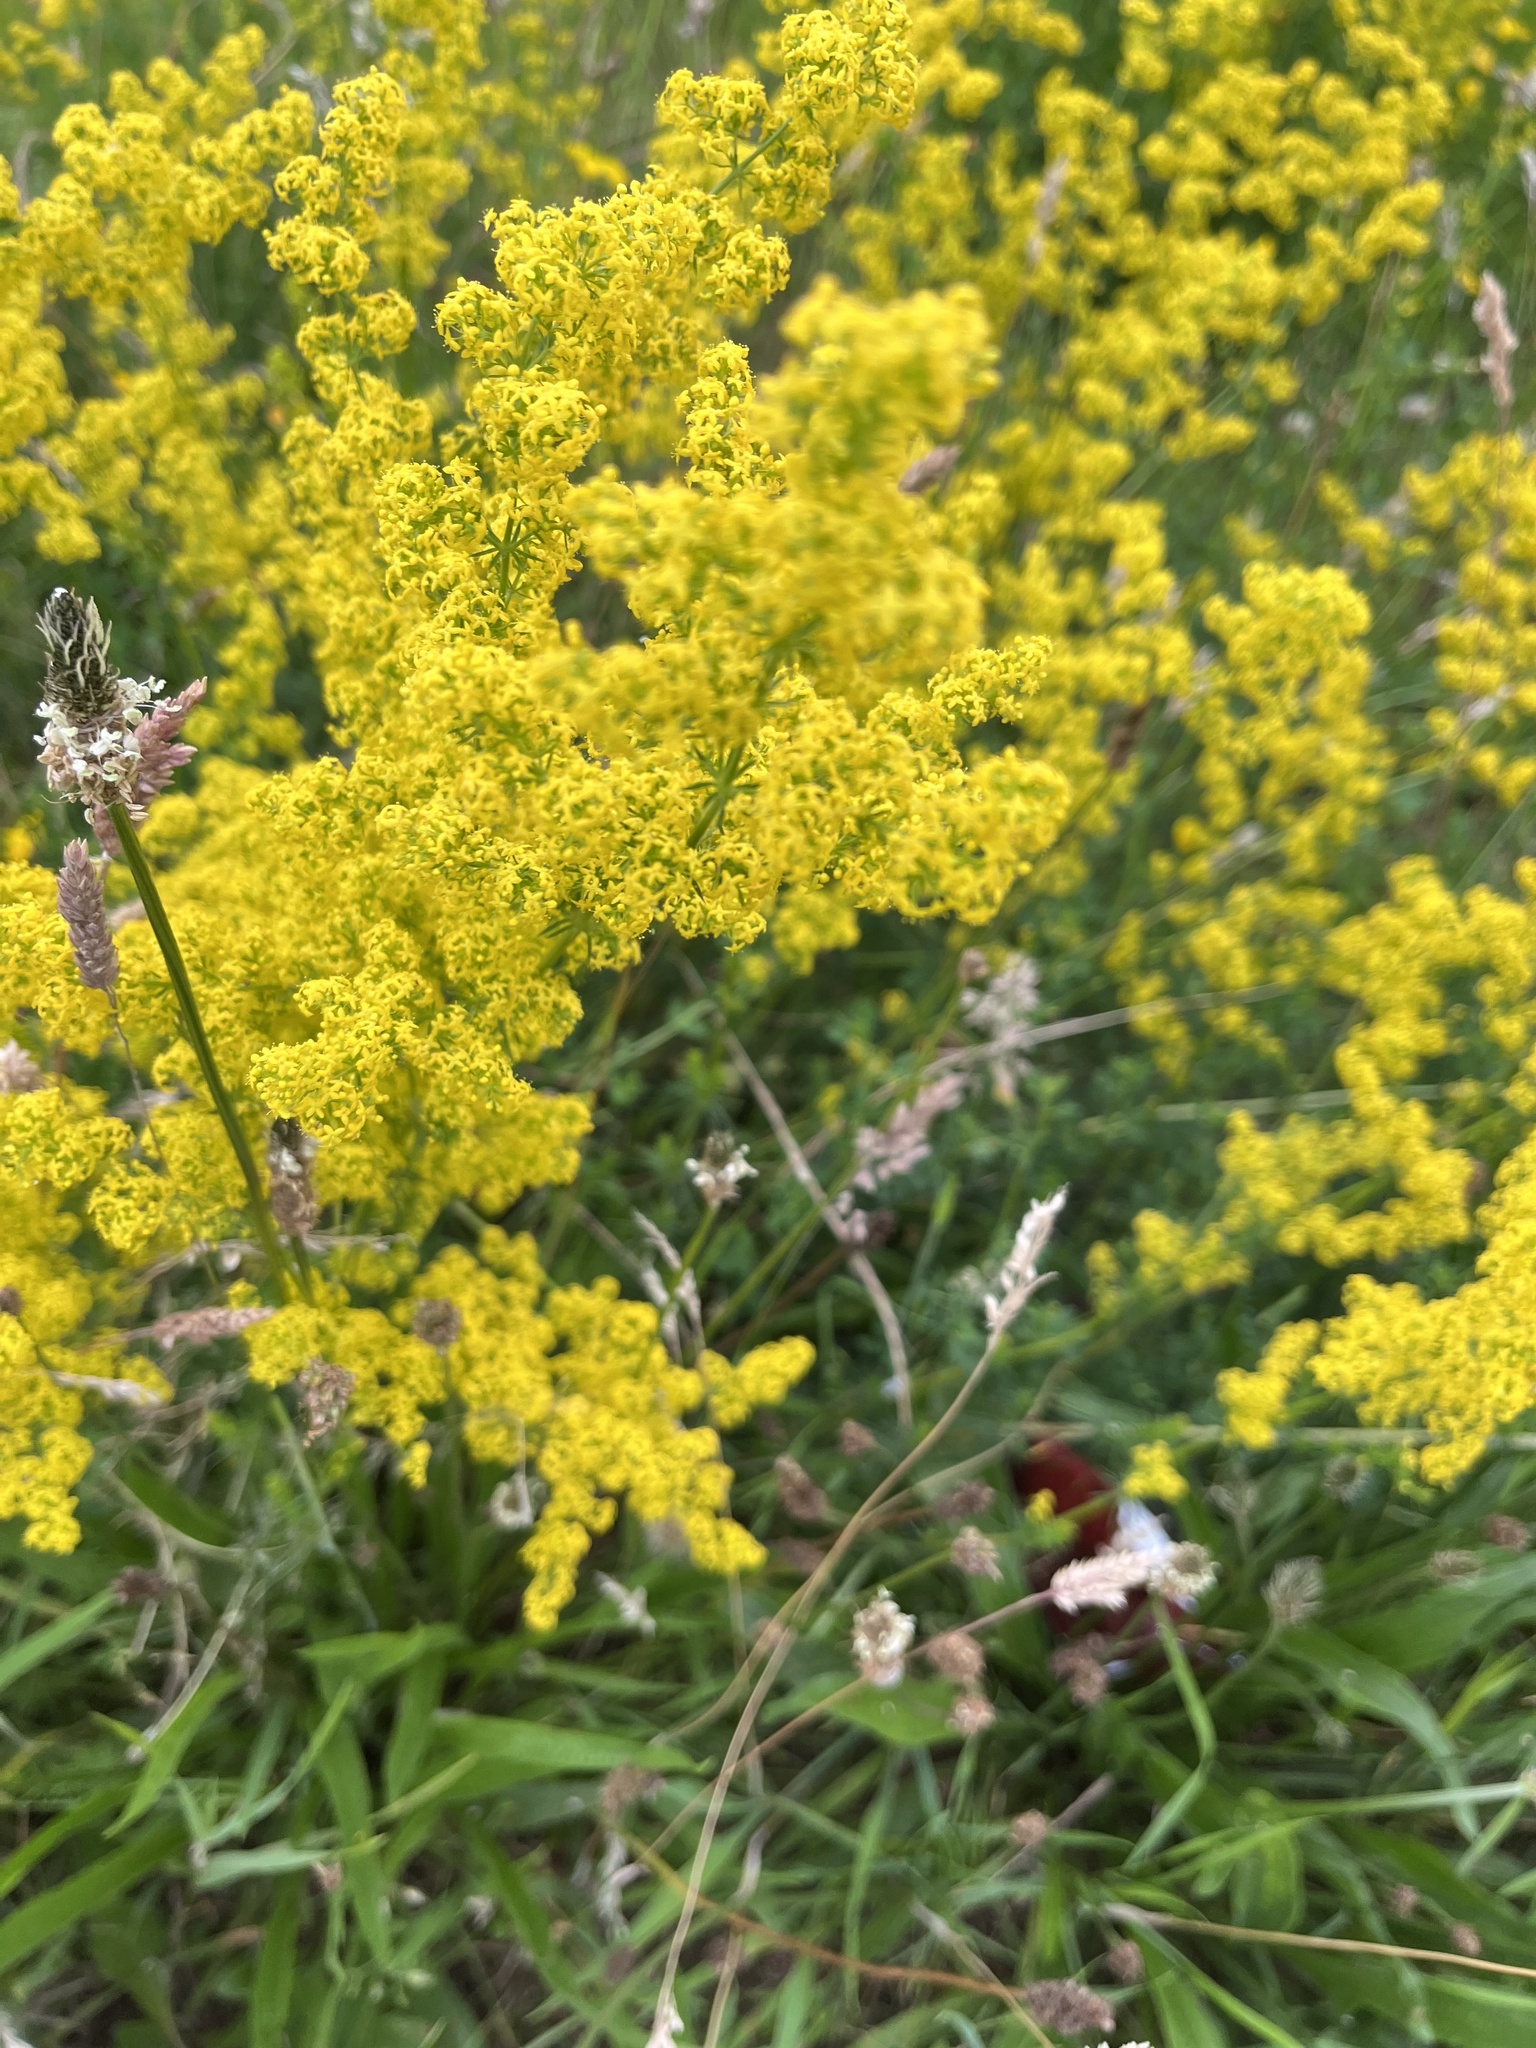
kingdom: Plantae
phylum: Tracheophyta
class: Magnoliopsida
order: Gentianales
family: Rubiaceae
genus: Galium
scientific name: Galium verum
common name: Lady's bedstraw
